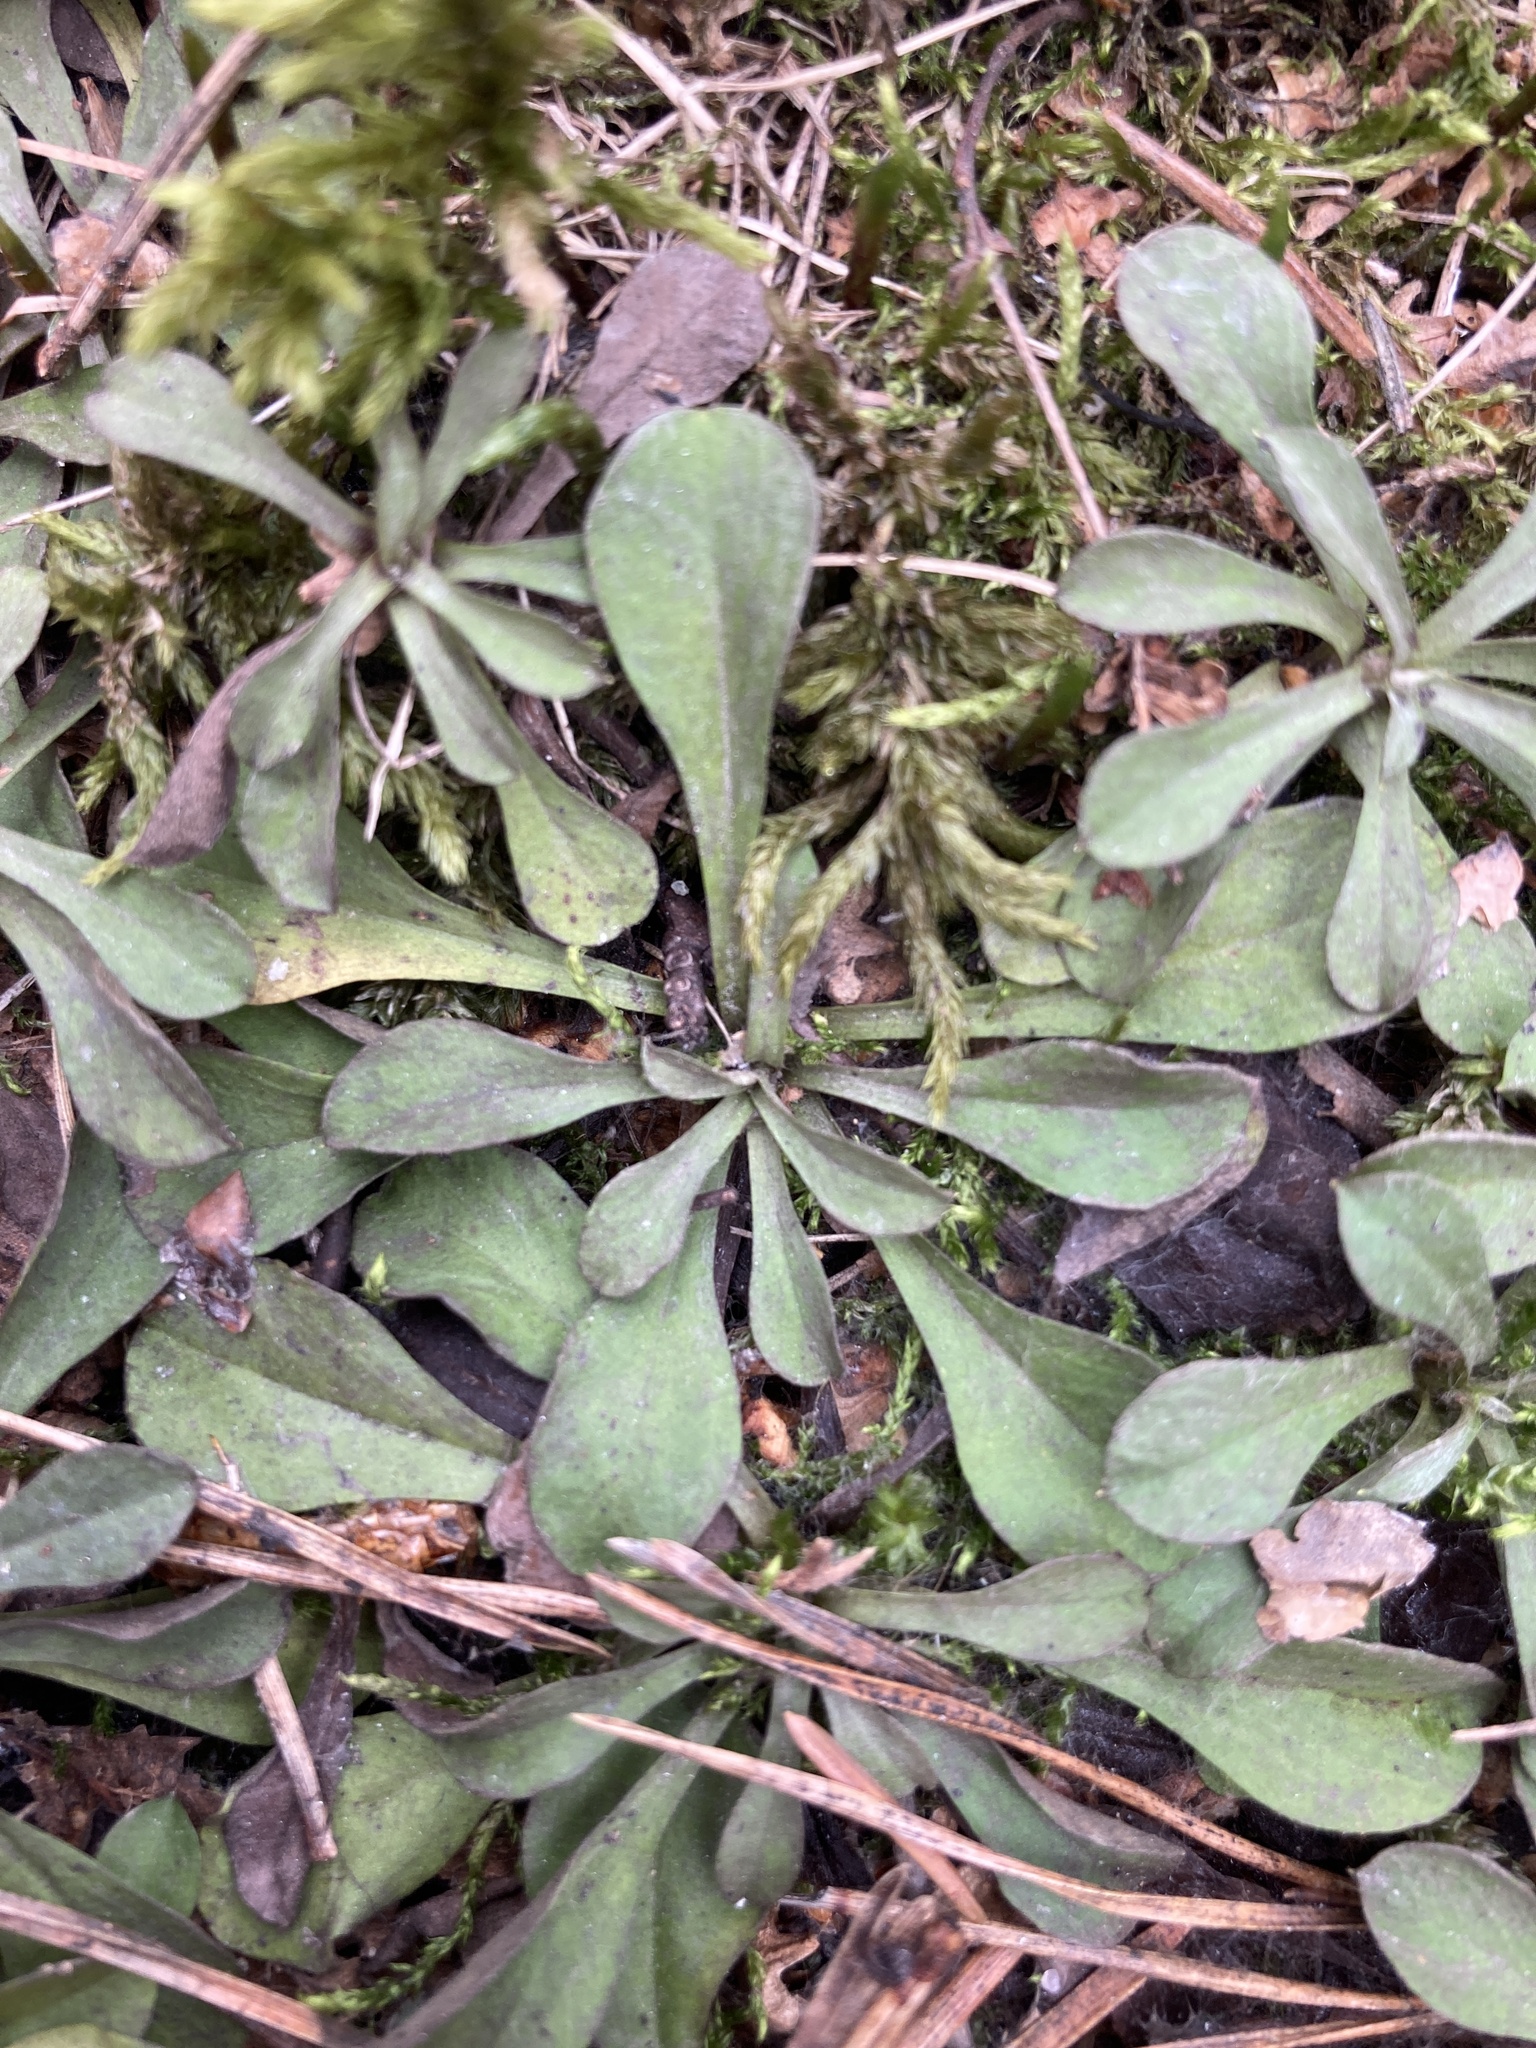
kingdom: Plantae
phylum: Tracheophyta
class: Magnoliopsida
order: Asterales
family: Asteraceae
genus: Antennaria
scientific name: Antennaria dioica
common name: Mountain everlasting
